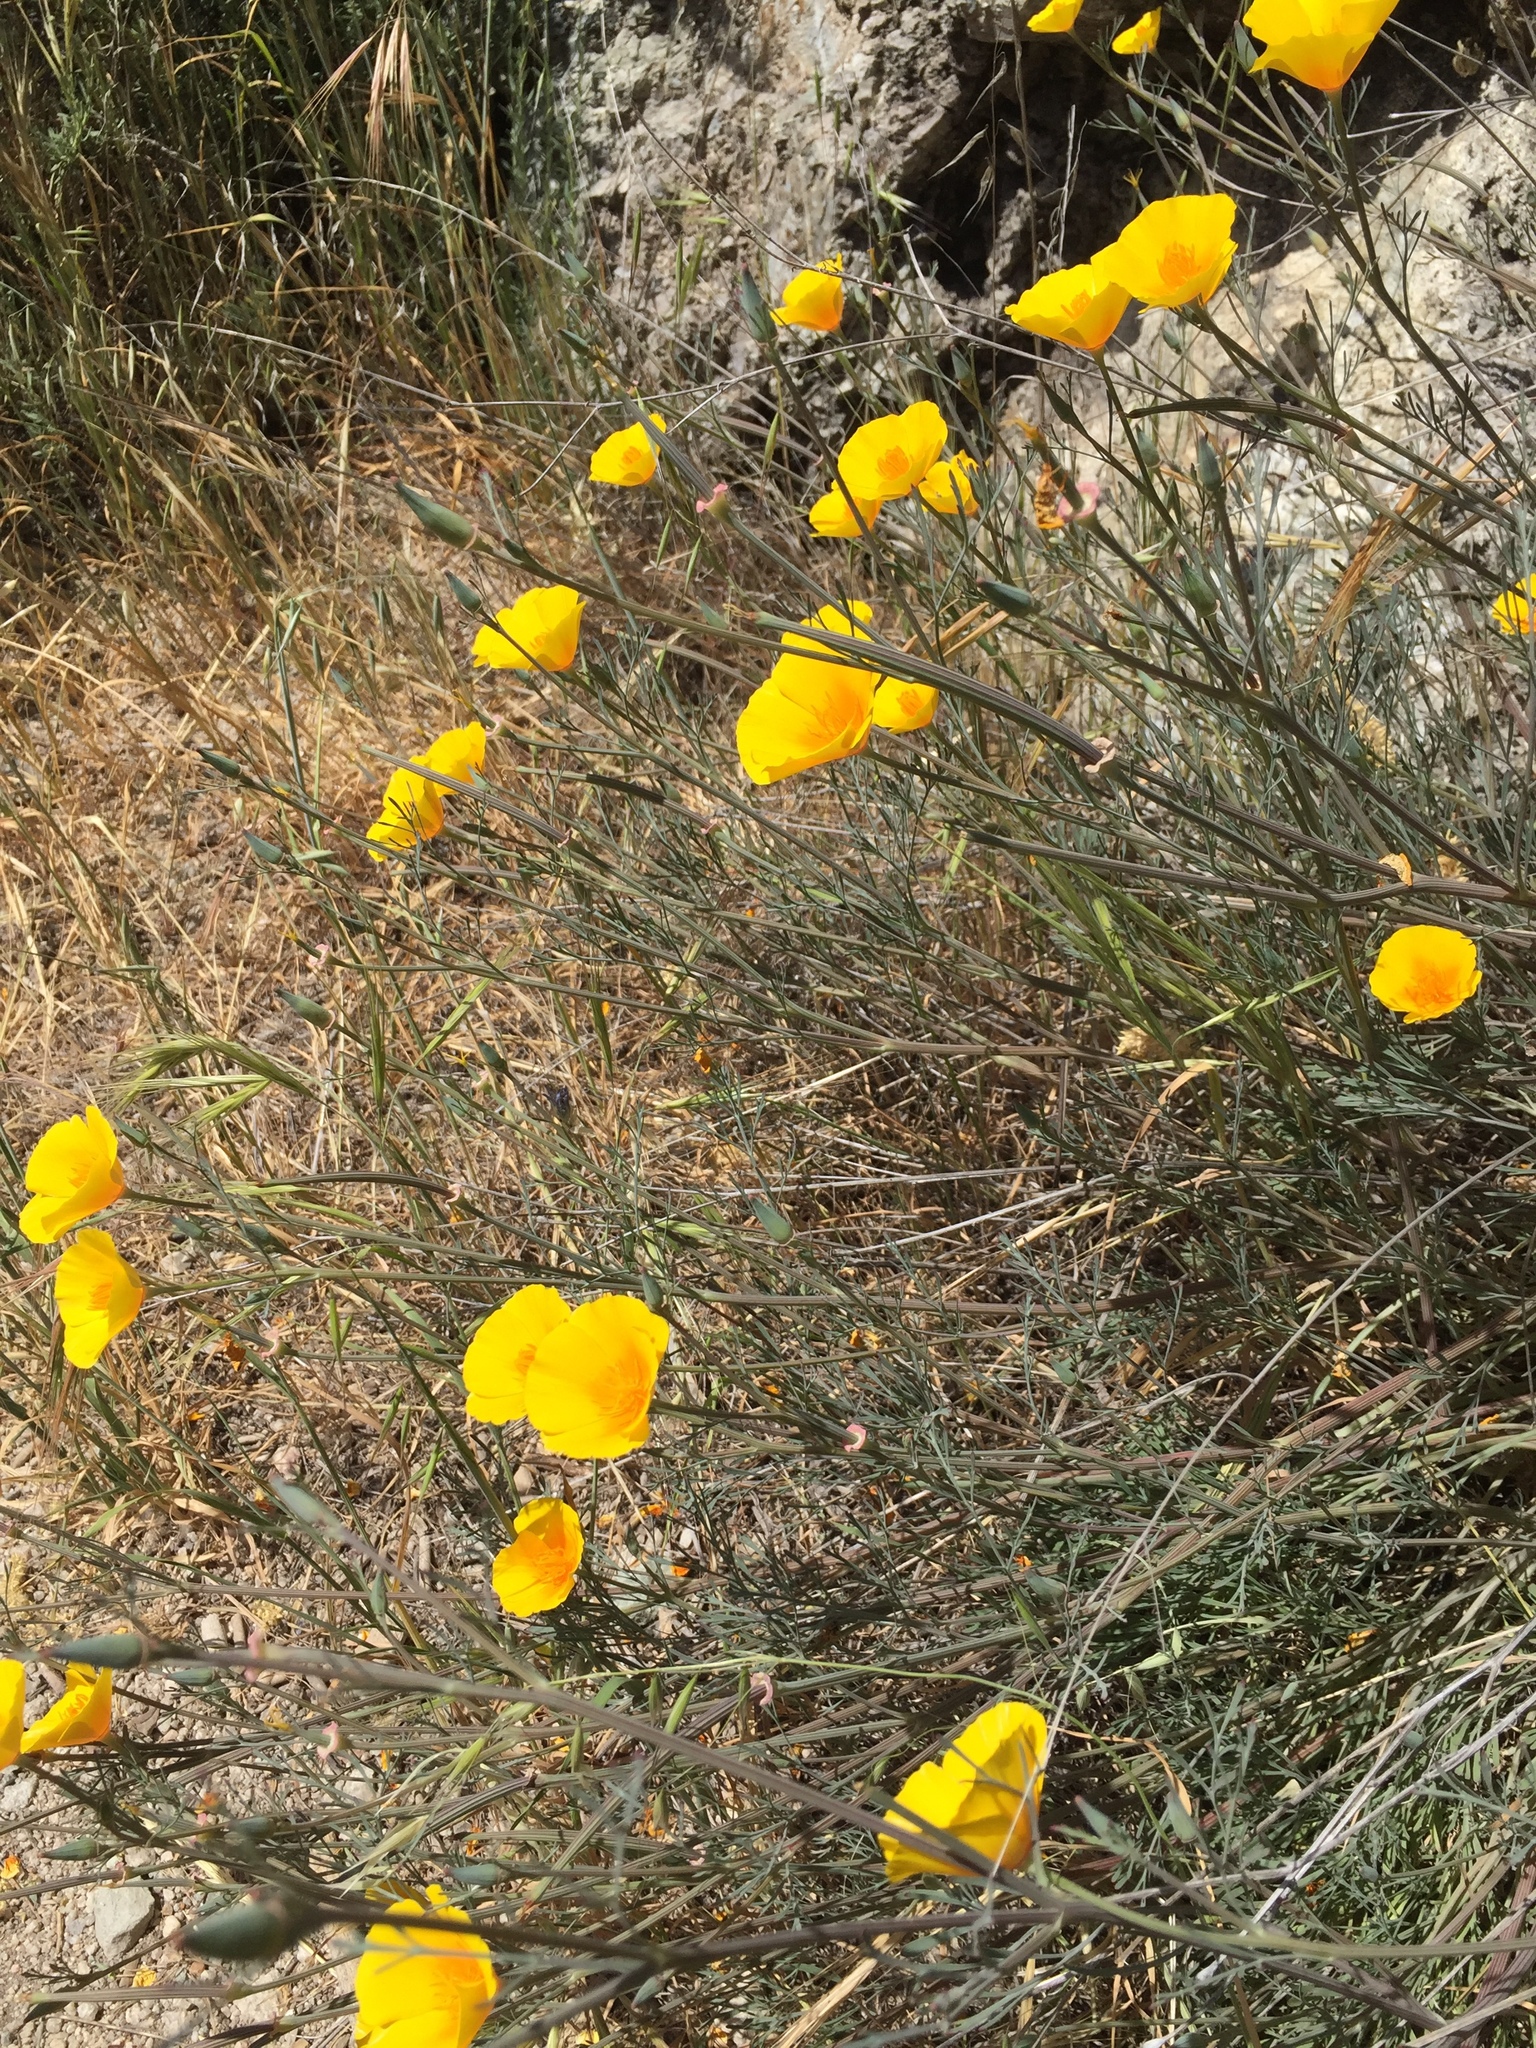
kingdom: Plantae
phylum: Tracheophyta
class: Magnoliopsida
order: Ranunculales
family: Papaveraceae
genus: Eschscholzia
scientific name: Eschscholzia californica
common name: California poppy
